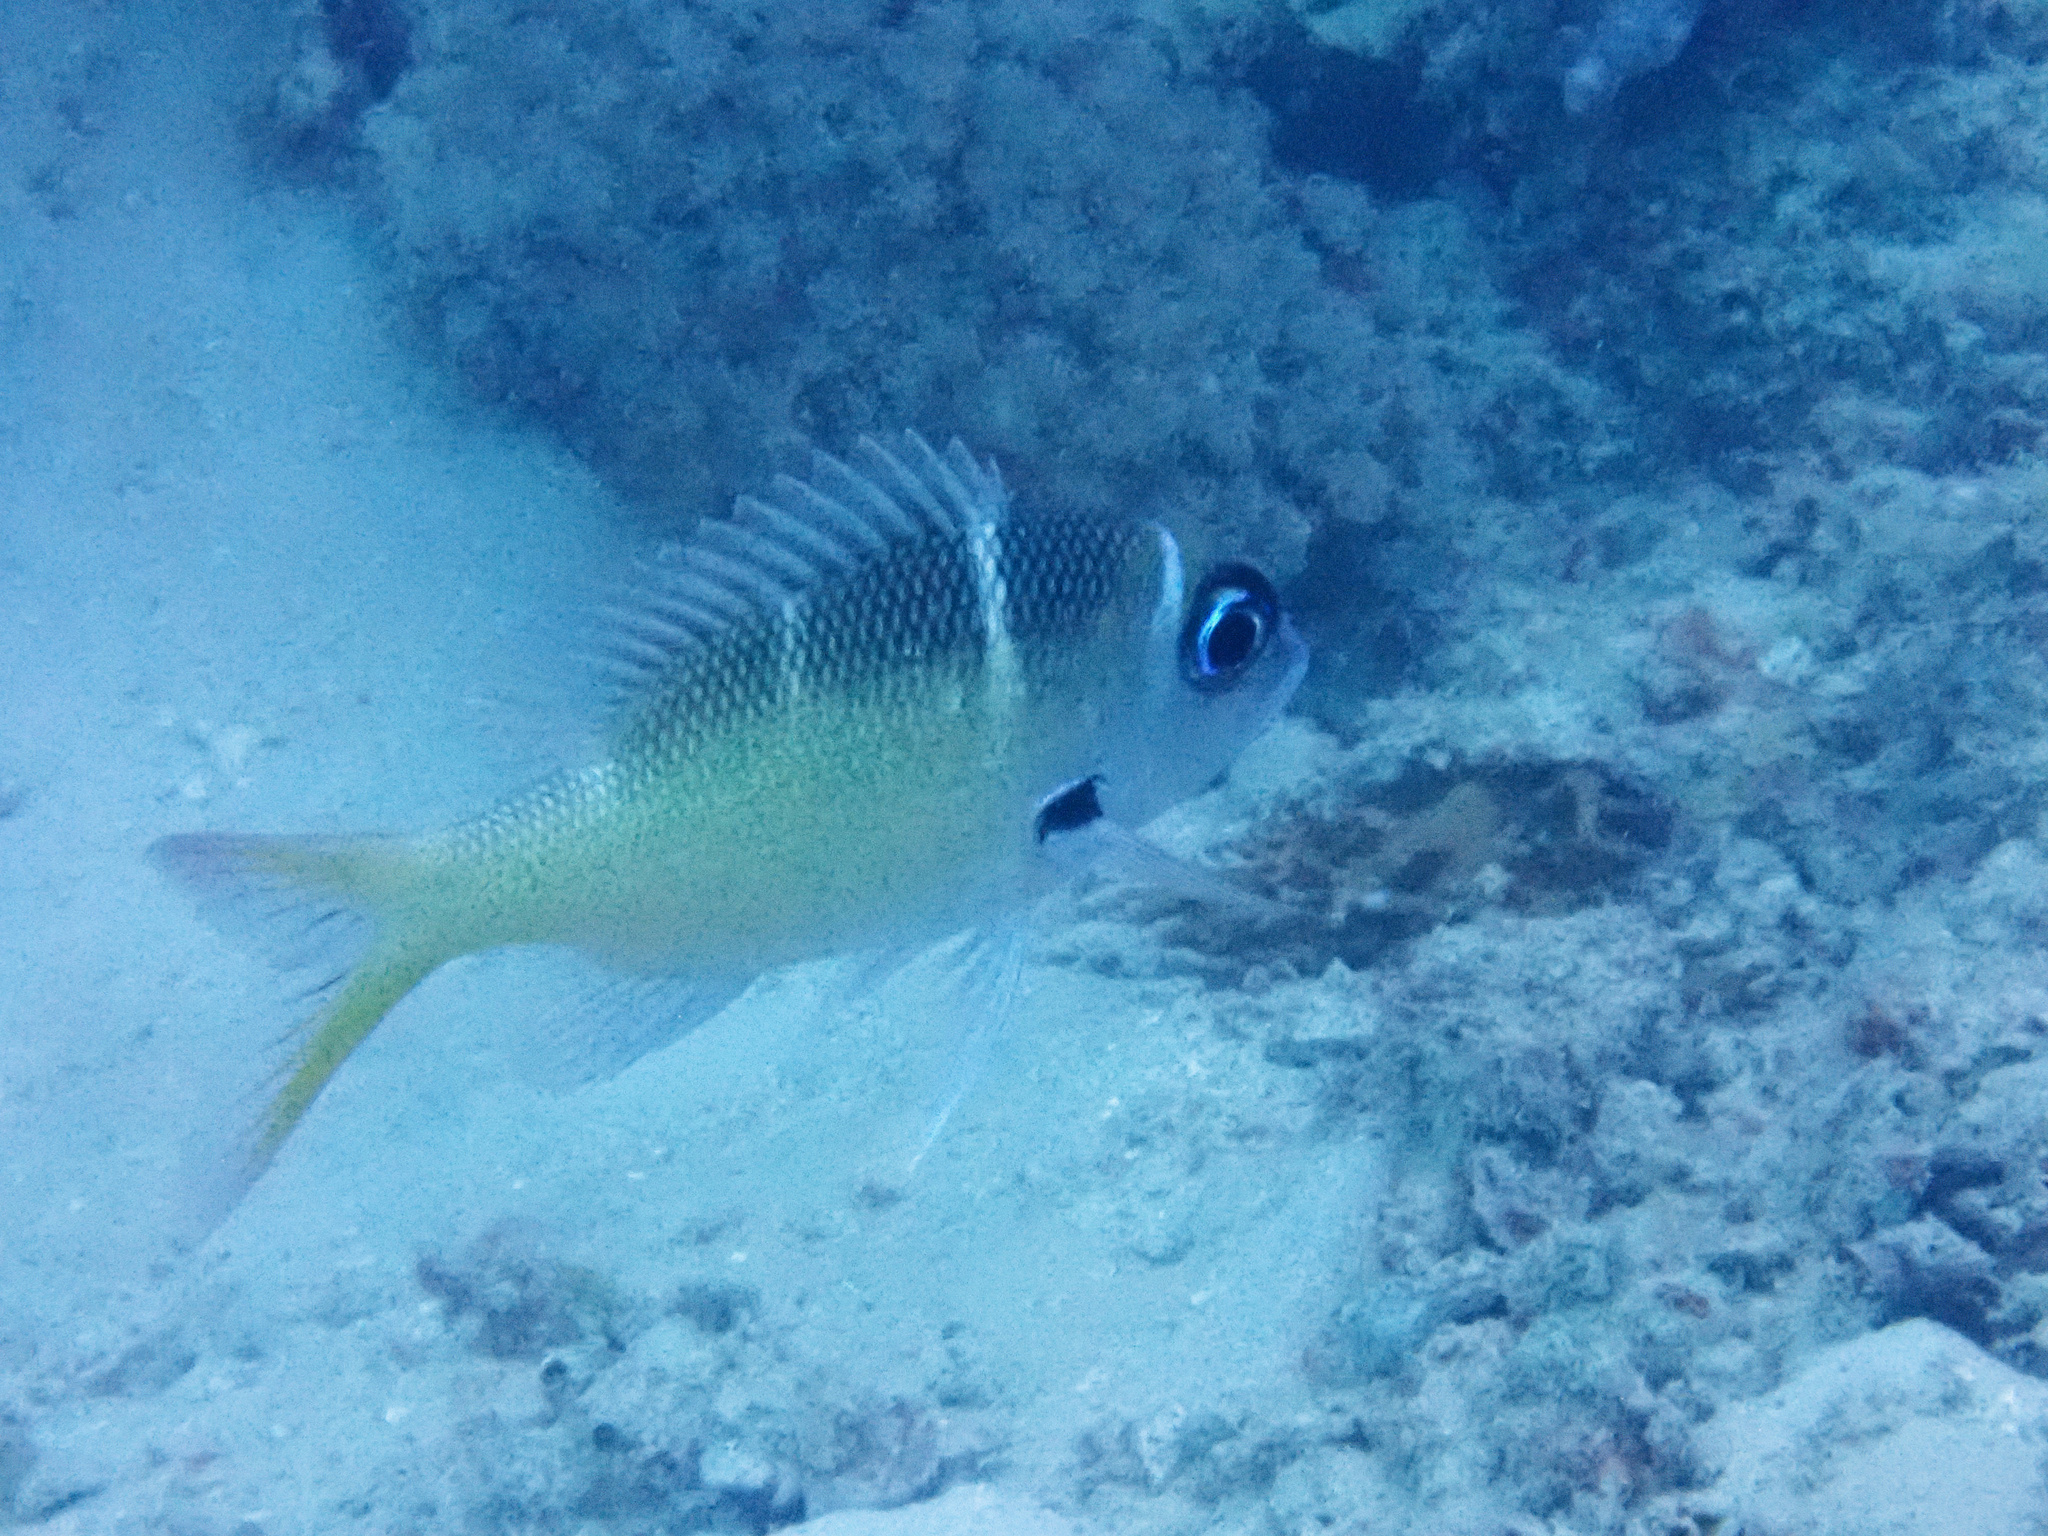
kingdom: Animalia
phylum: Chordata
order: Perciformes
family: Lethrinidae
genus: Monotaxis
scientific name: Monotaxis heterodon
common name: Redfin emperor
